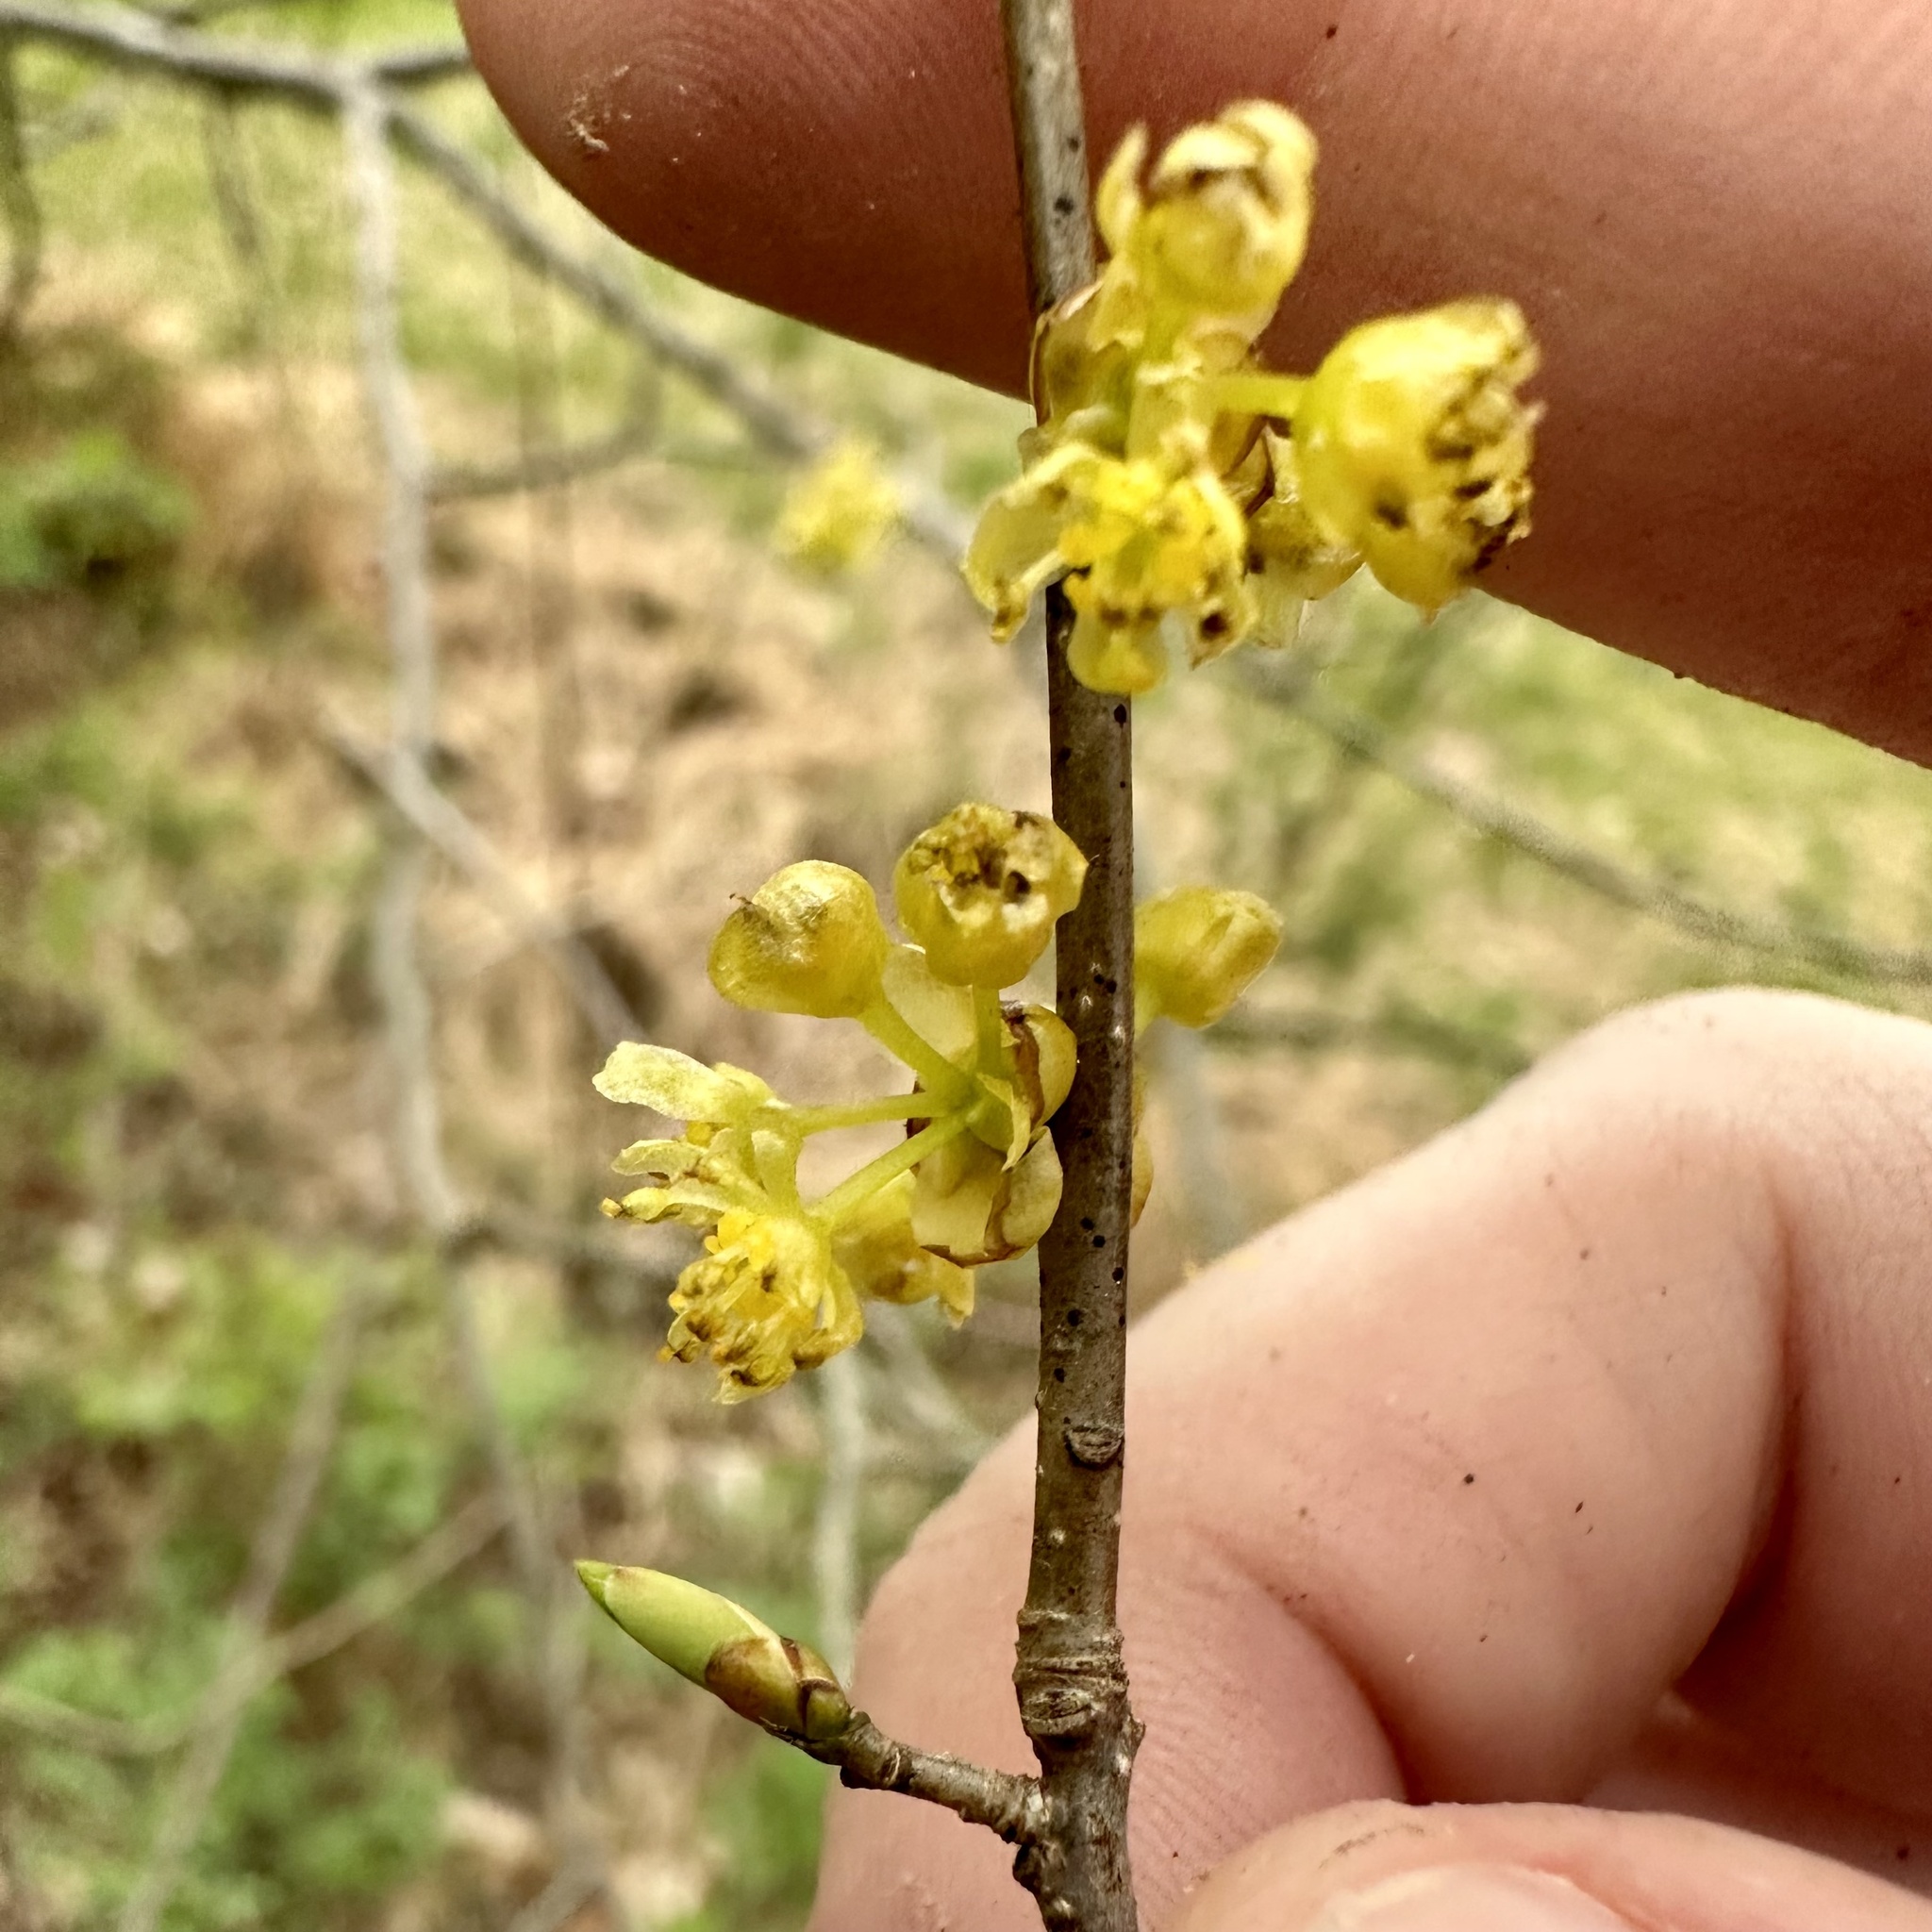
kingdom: Plantae
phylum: Tracheophyta
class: Magnoliopsida
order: Laurales
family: Lauraceae
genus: Lindera
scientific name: Lindera benzoin
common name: Spicebush
